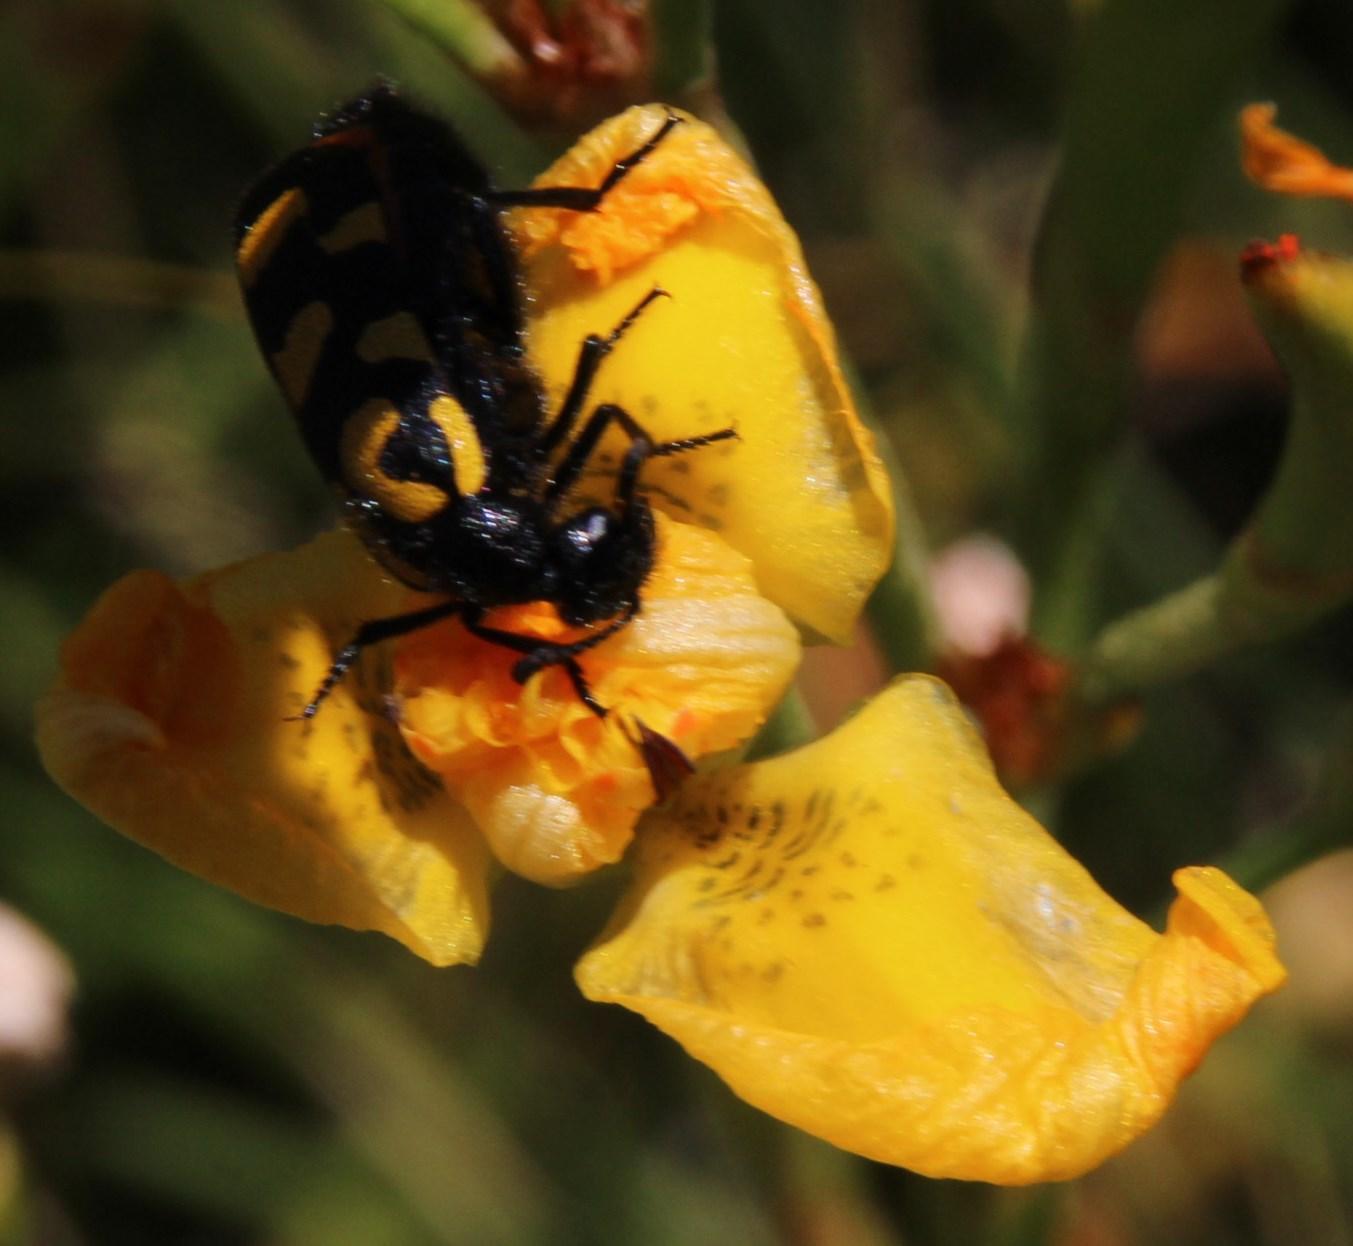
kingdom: Animalia
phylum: Arthropoda
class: Insecta
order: Coleoptera
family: Meloidae
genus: Ceroctis
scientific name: Ceroctis capensis
